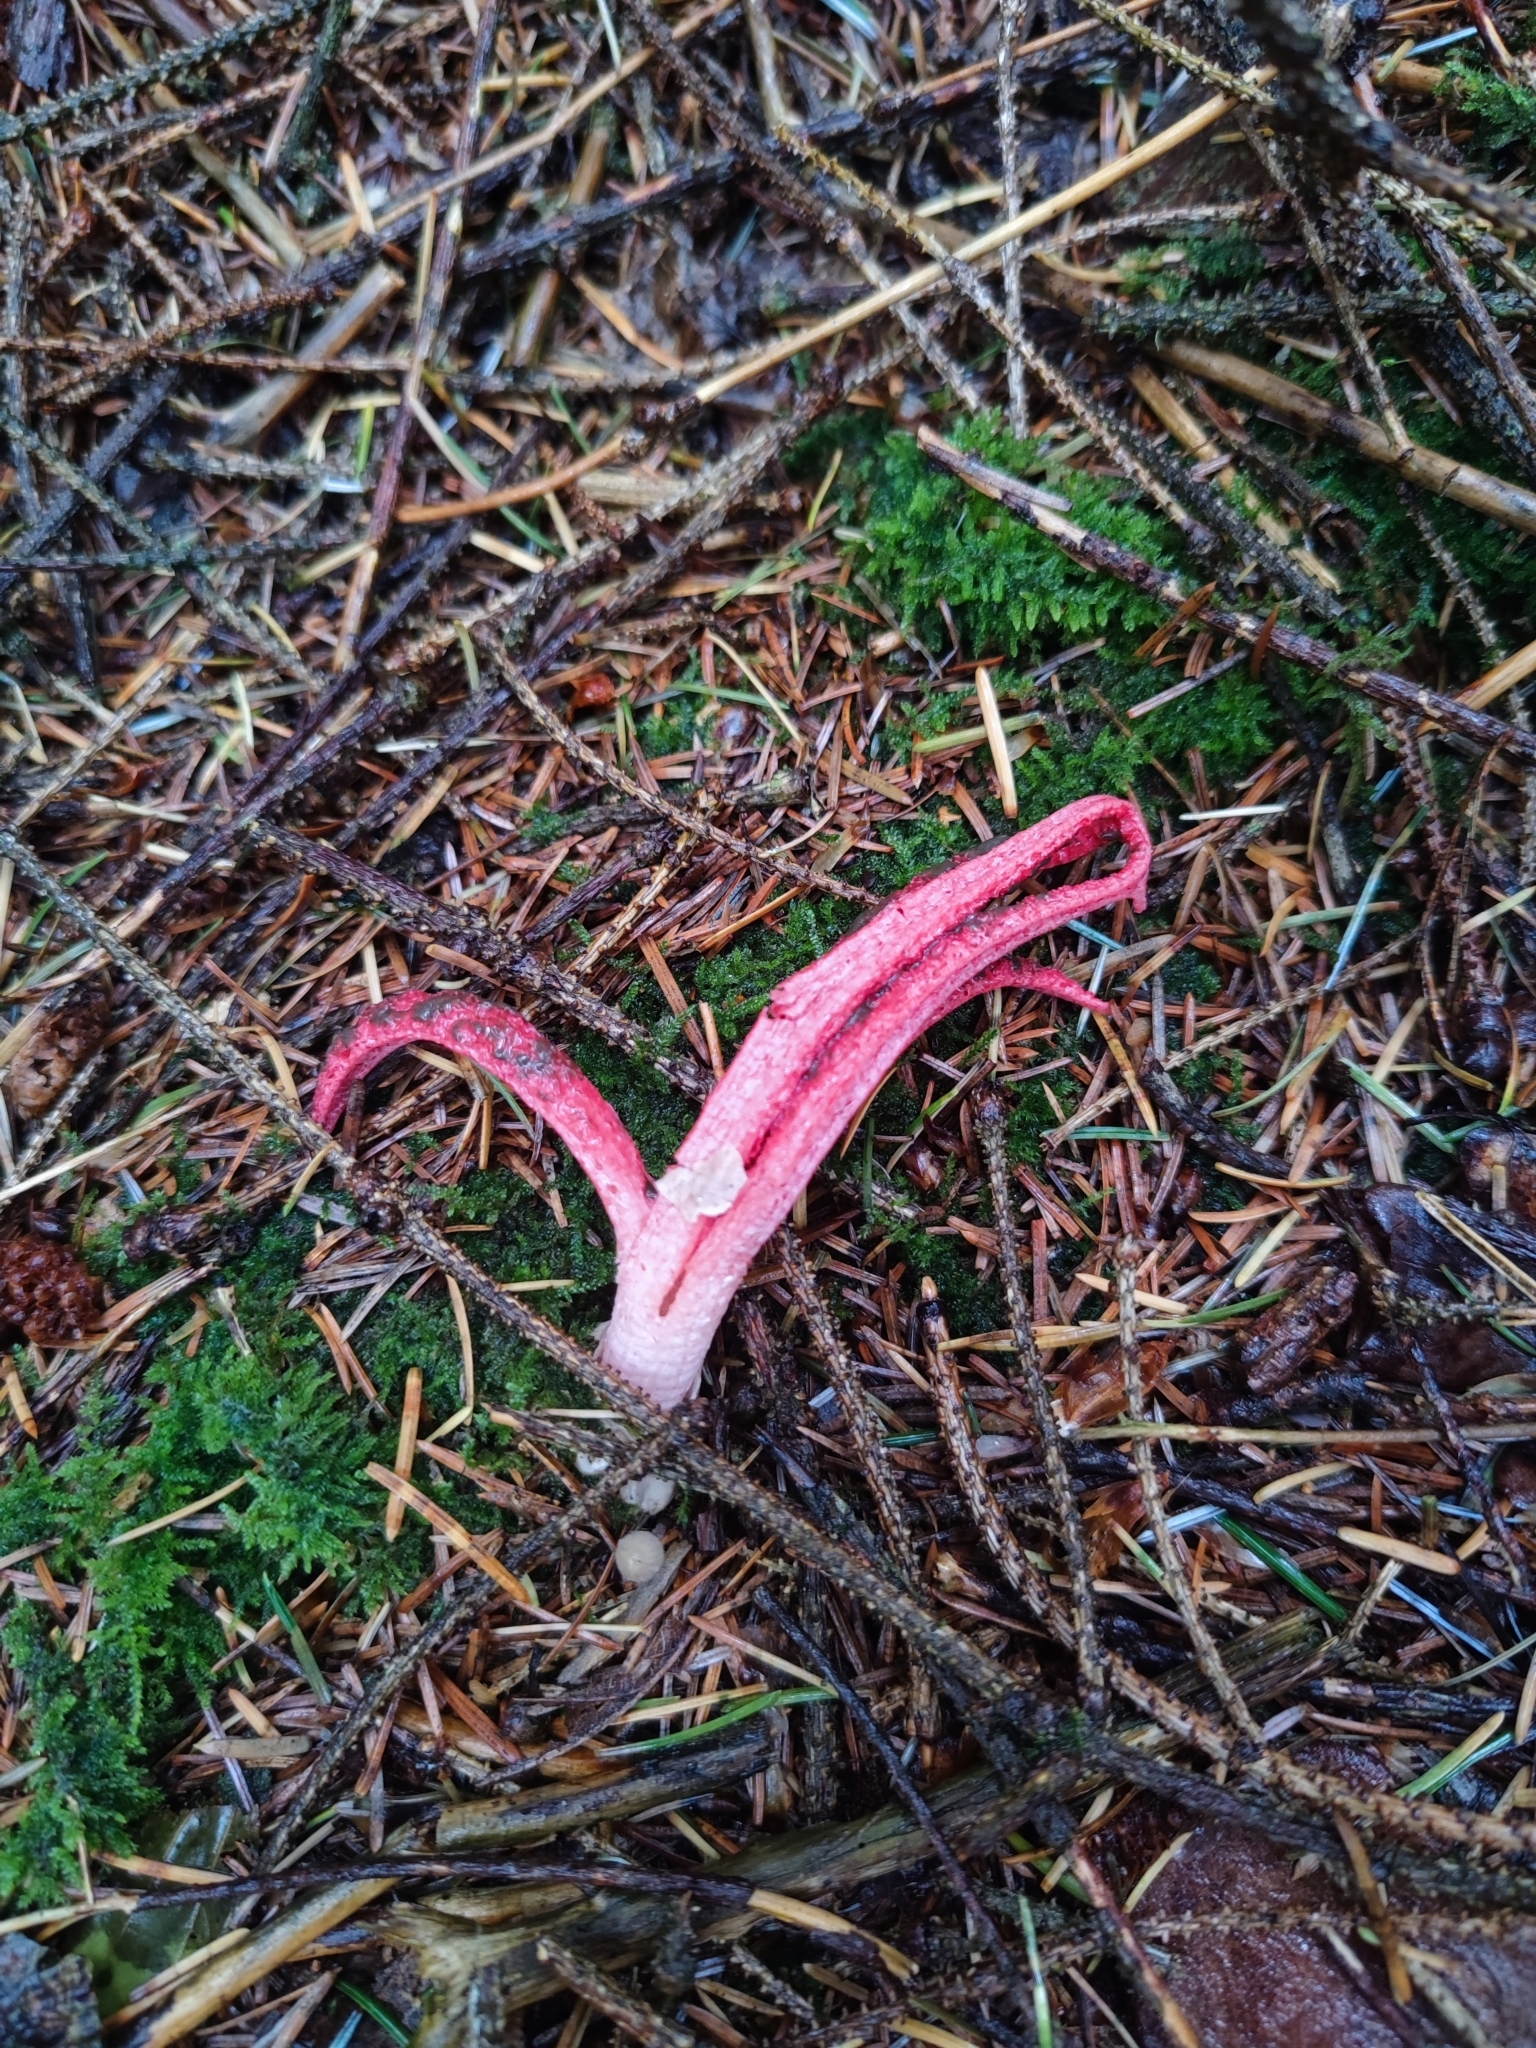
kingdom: Fungi
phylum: Basidiomycota
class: Agaricomycetes
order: Phallales
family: Phallaceae
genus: Clathrus
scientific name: Clathrus archeri
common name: Devil's fingers
